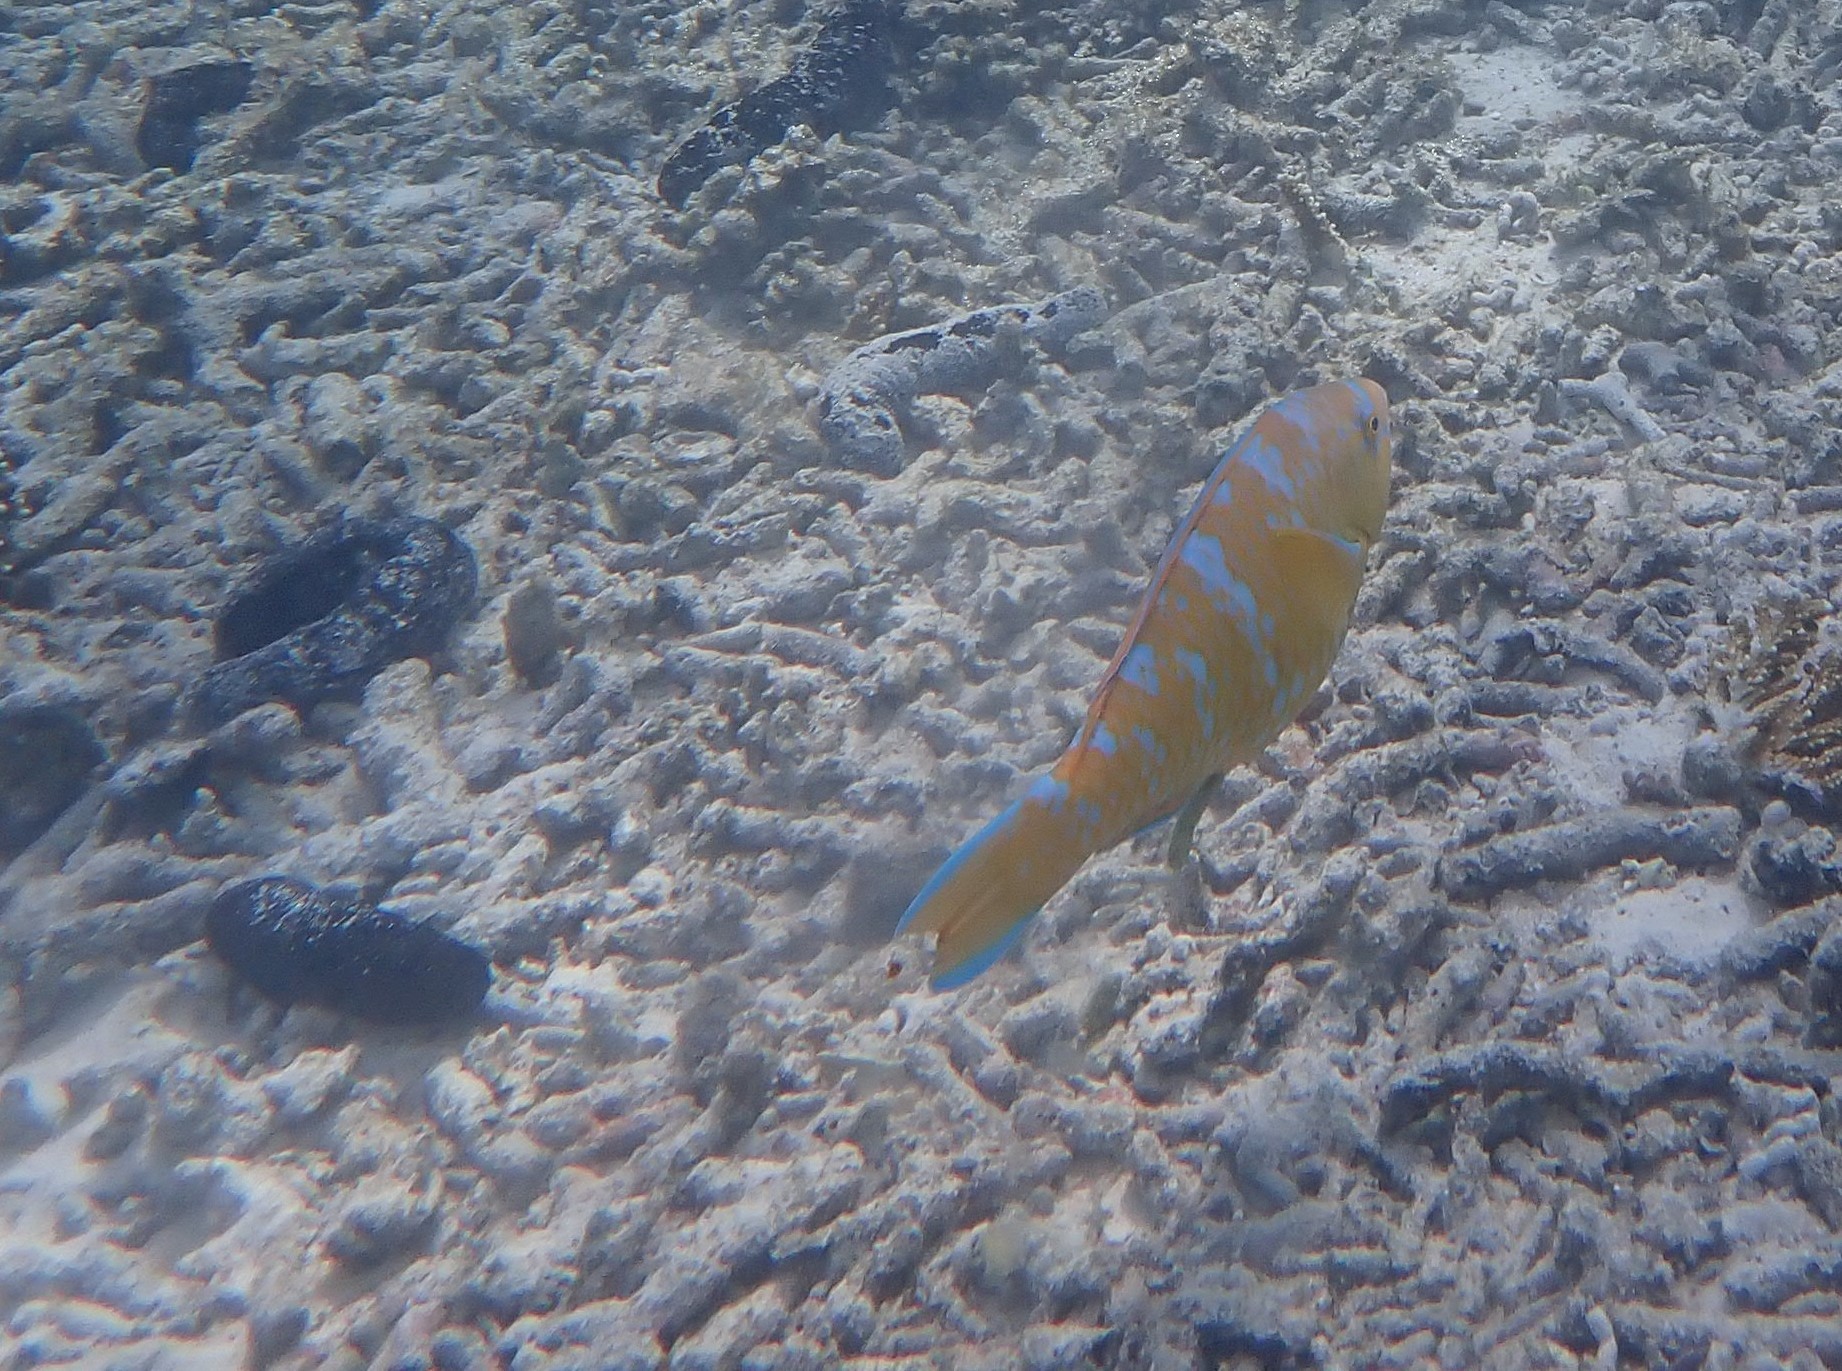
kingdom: Animalia
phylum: Chordata
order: Perciformes
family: Scaridae
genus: Scarus
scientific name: Scarus ghobban
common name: Blue-barred parrotfish
